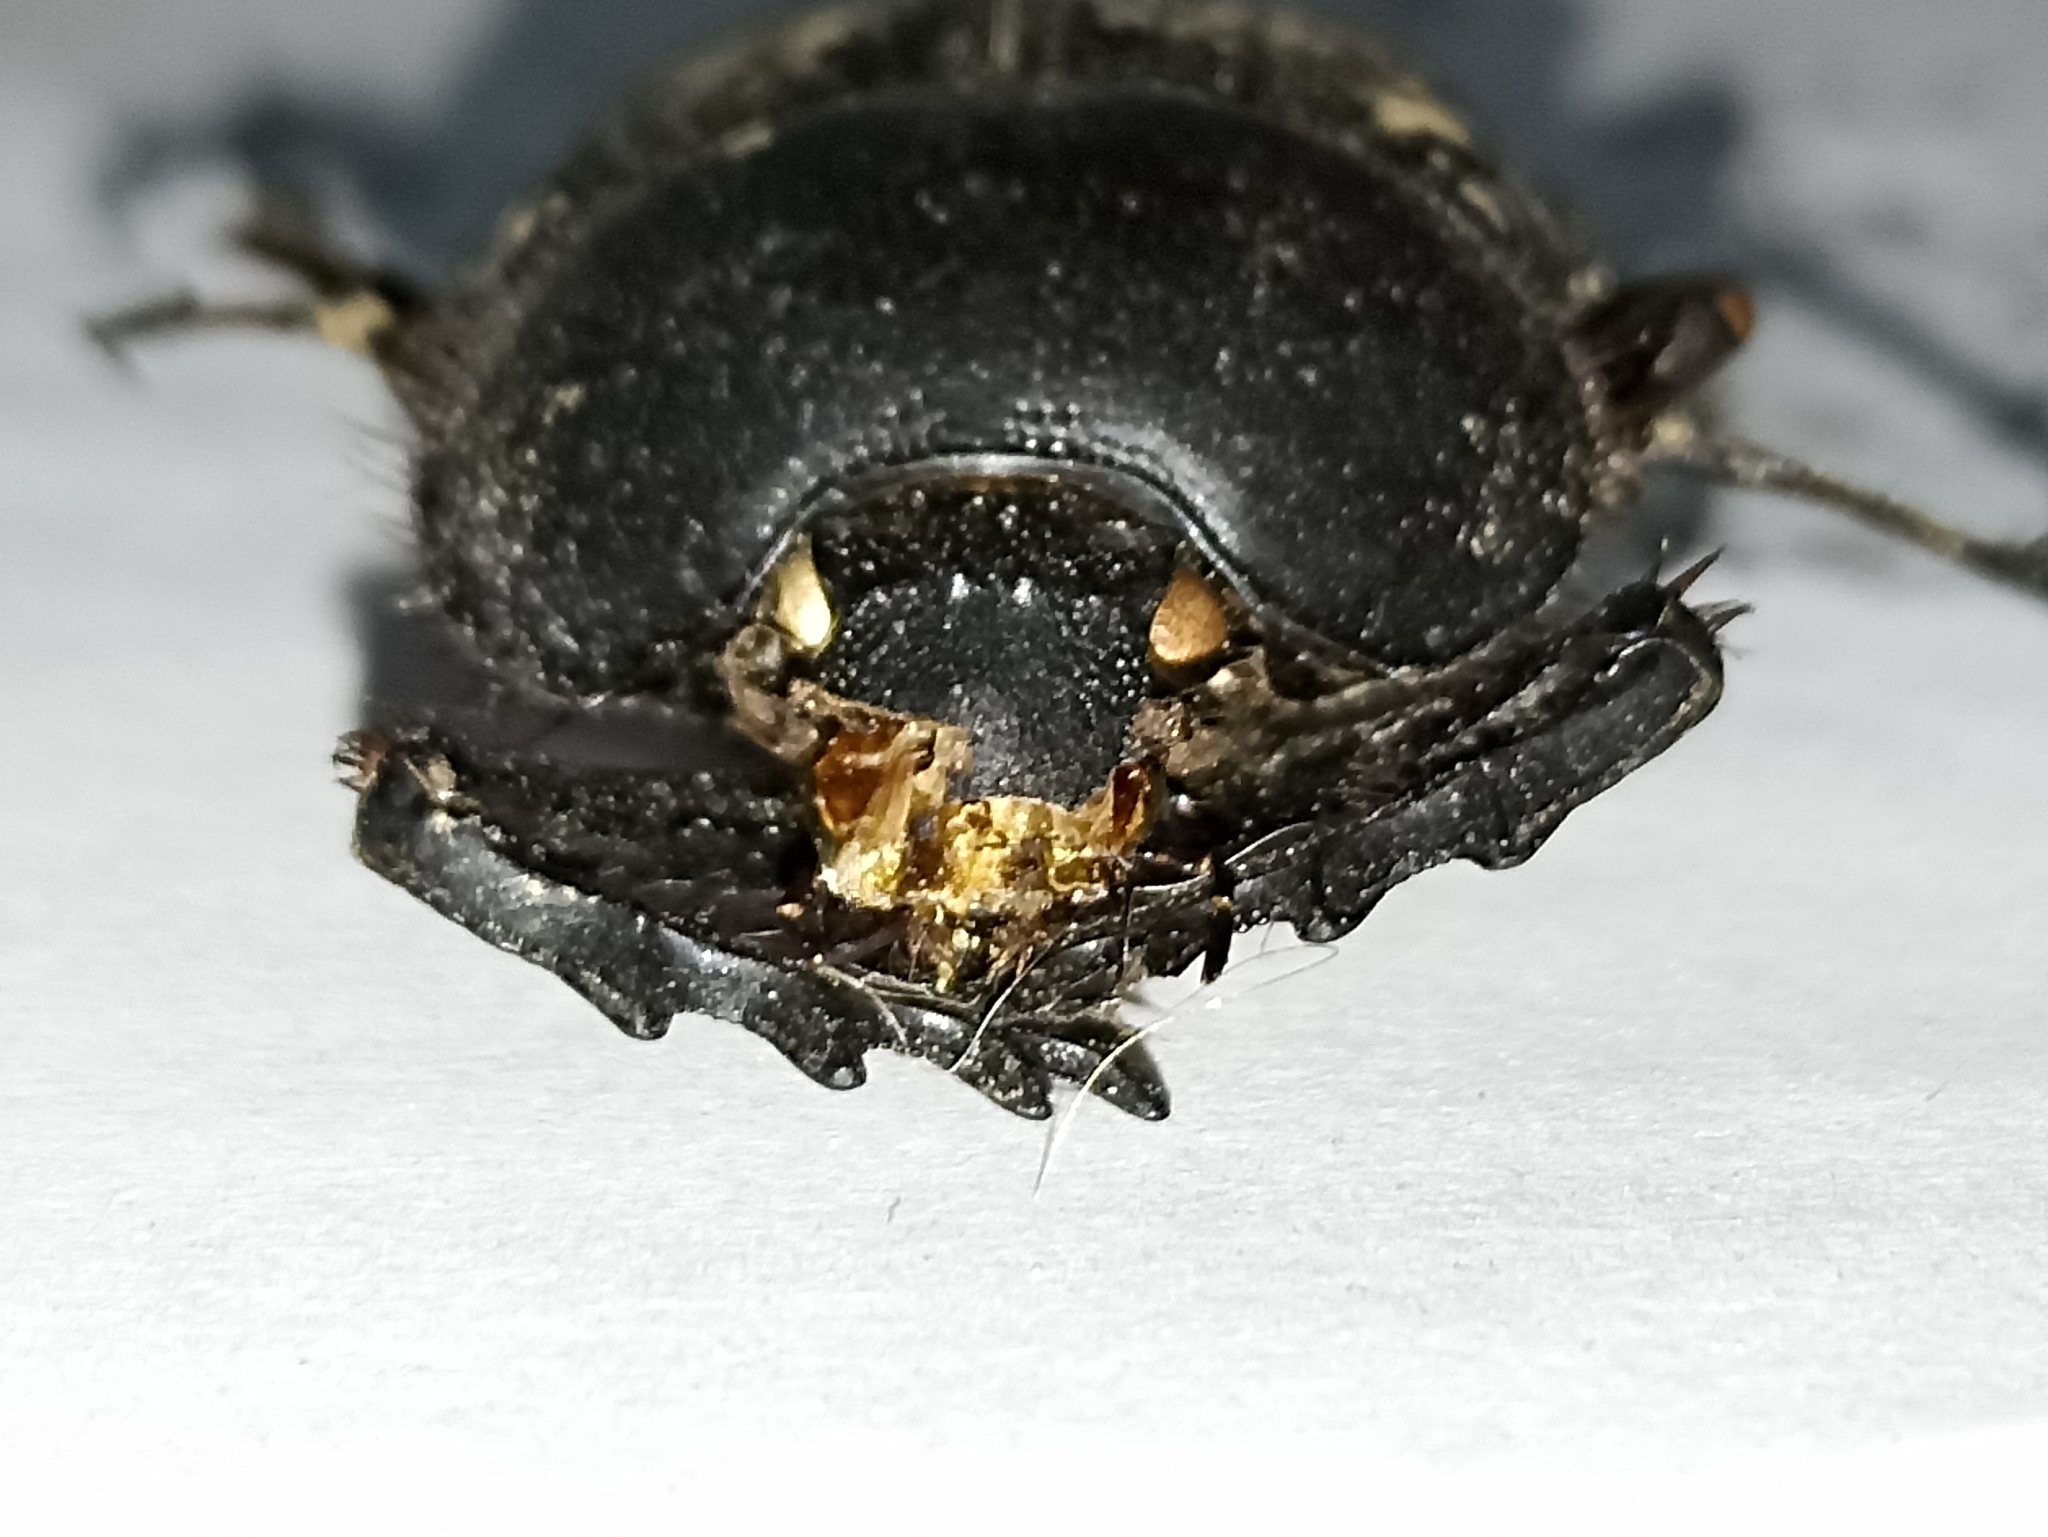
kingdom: Animalia
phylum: Arthropoda
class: Insecta
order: Coleoptera
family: Scarabaeidae
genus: Scarabaeus
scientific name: Scarabaeus sacer
